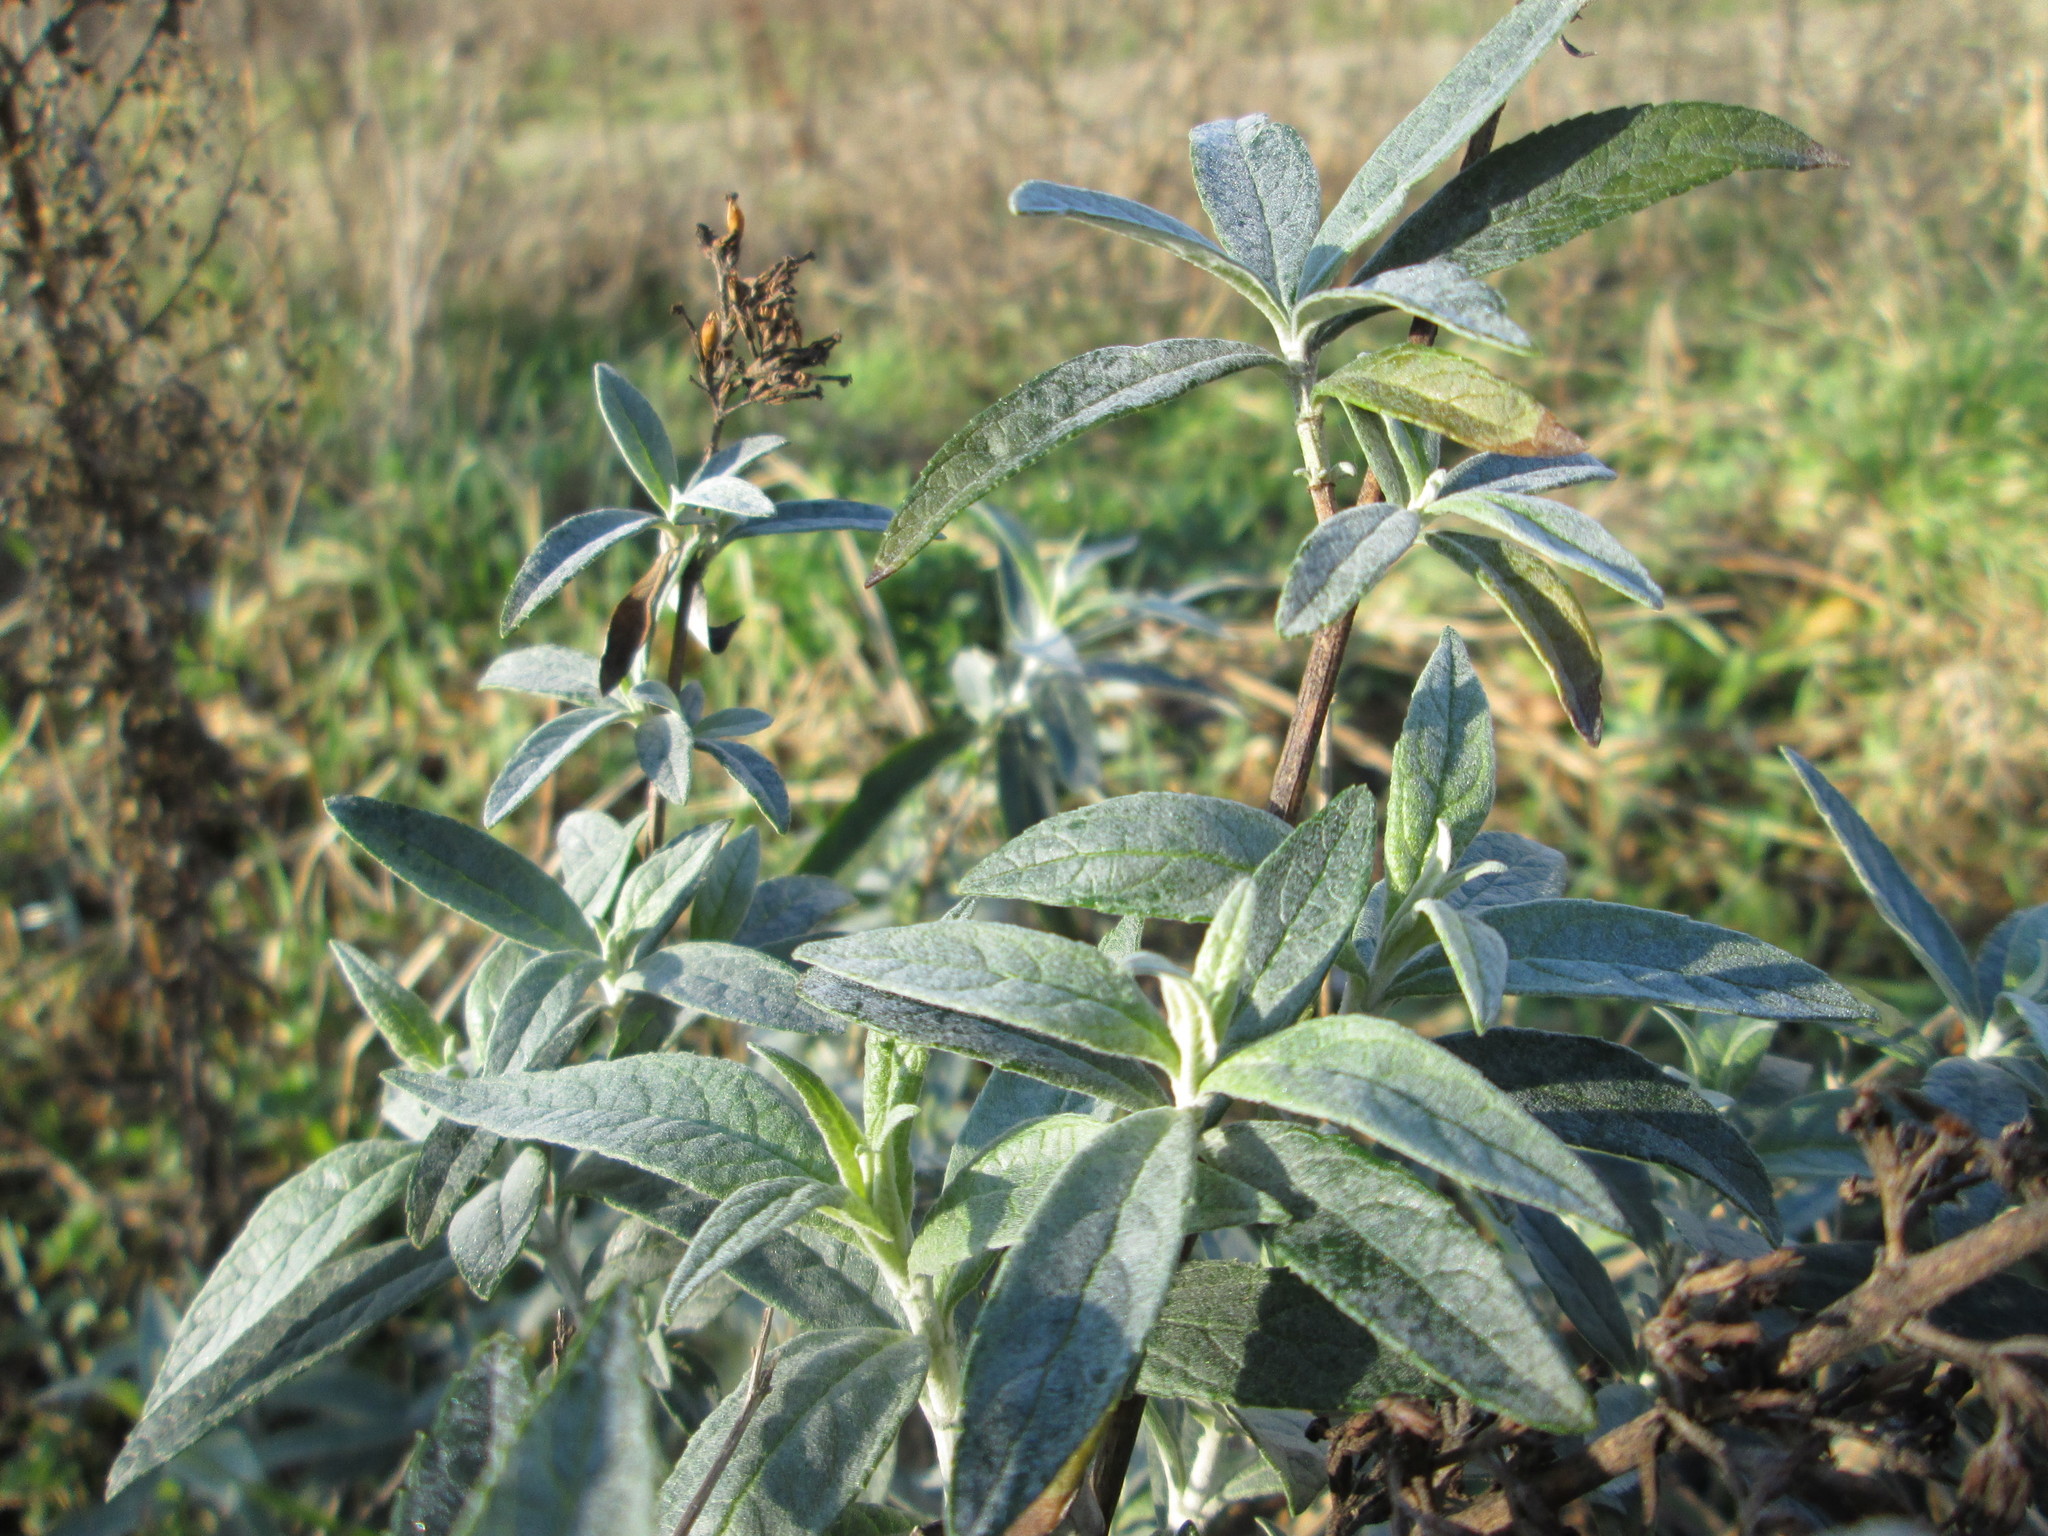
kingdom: Plantae
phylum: Tracheophyta
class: Magnoliopsida
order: Lamiales
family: Scrophulariaceae
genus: Buddleja
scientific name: Buddleja davidii
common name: Butterfly-bush
